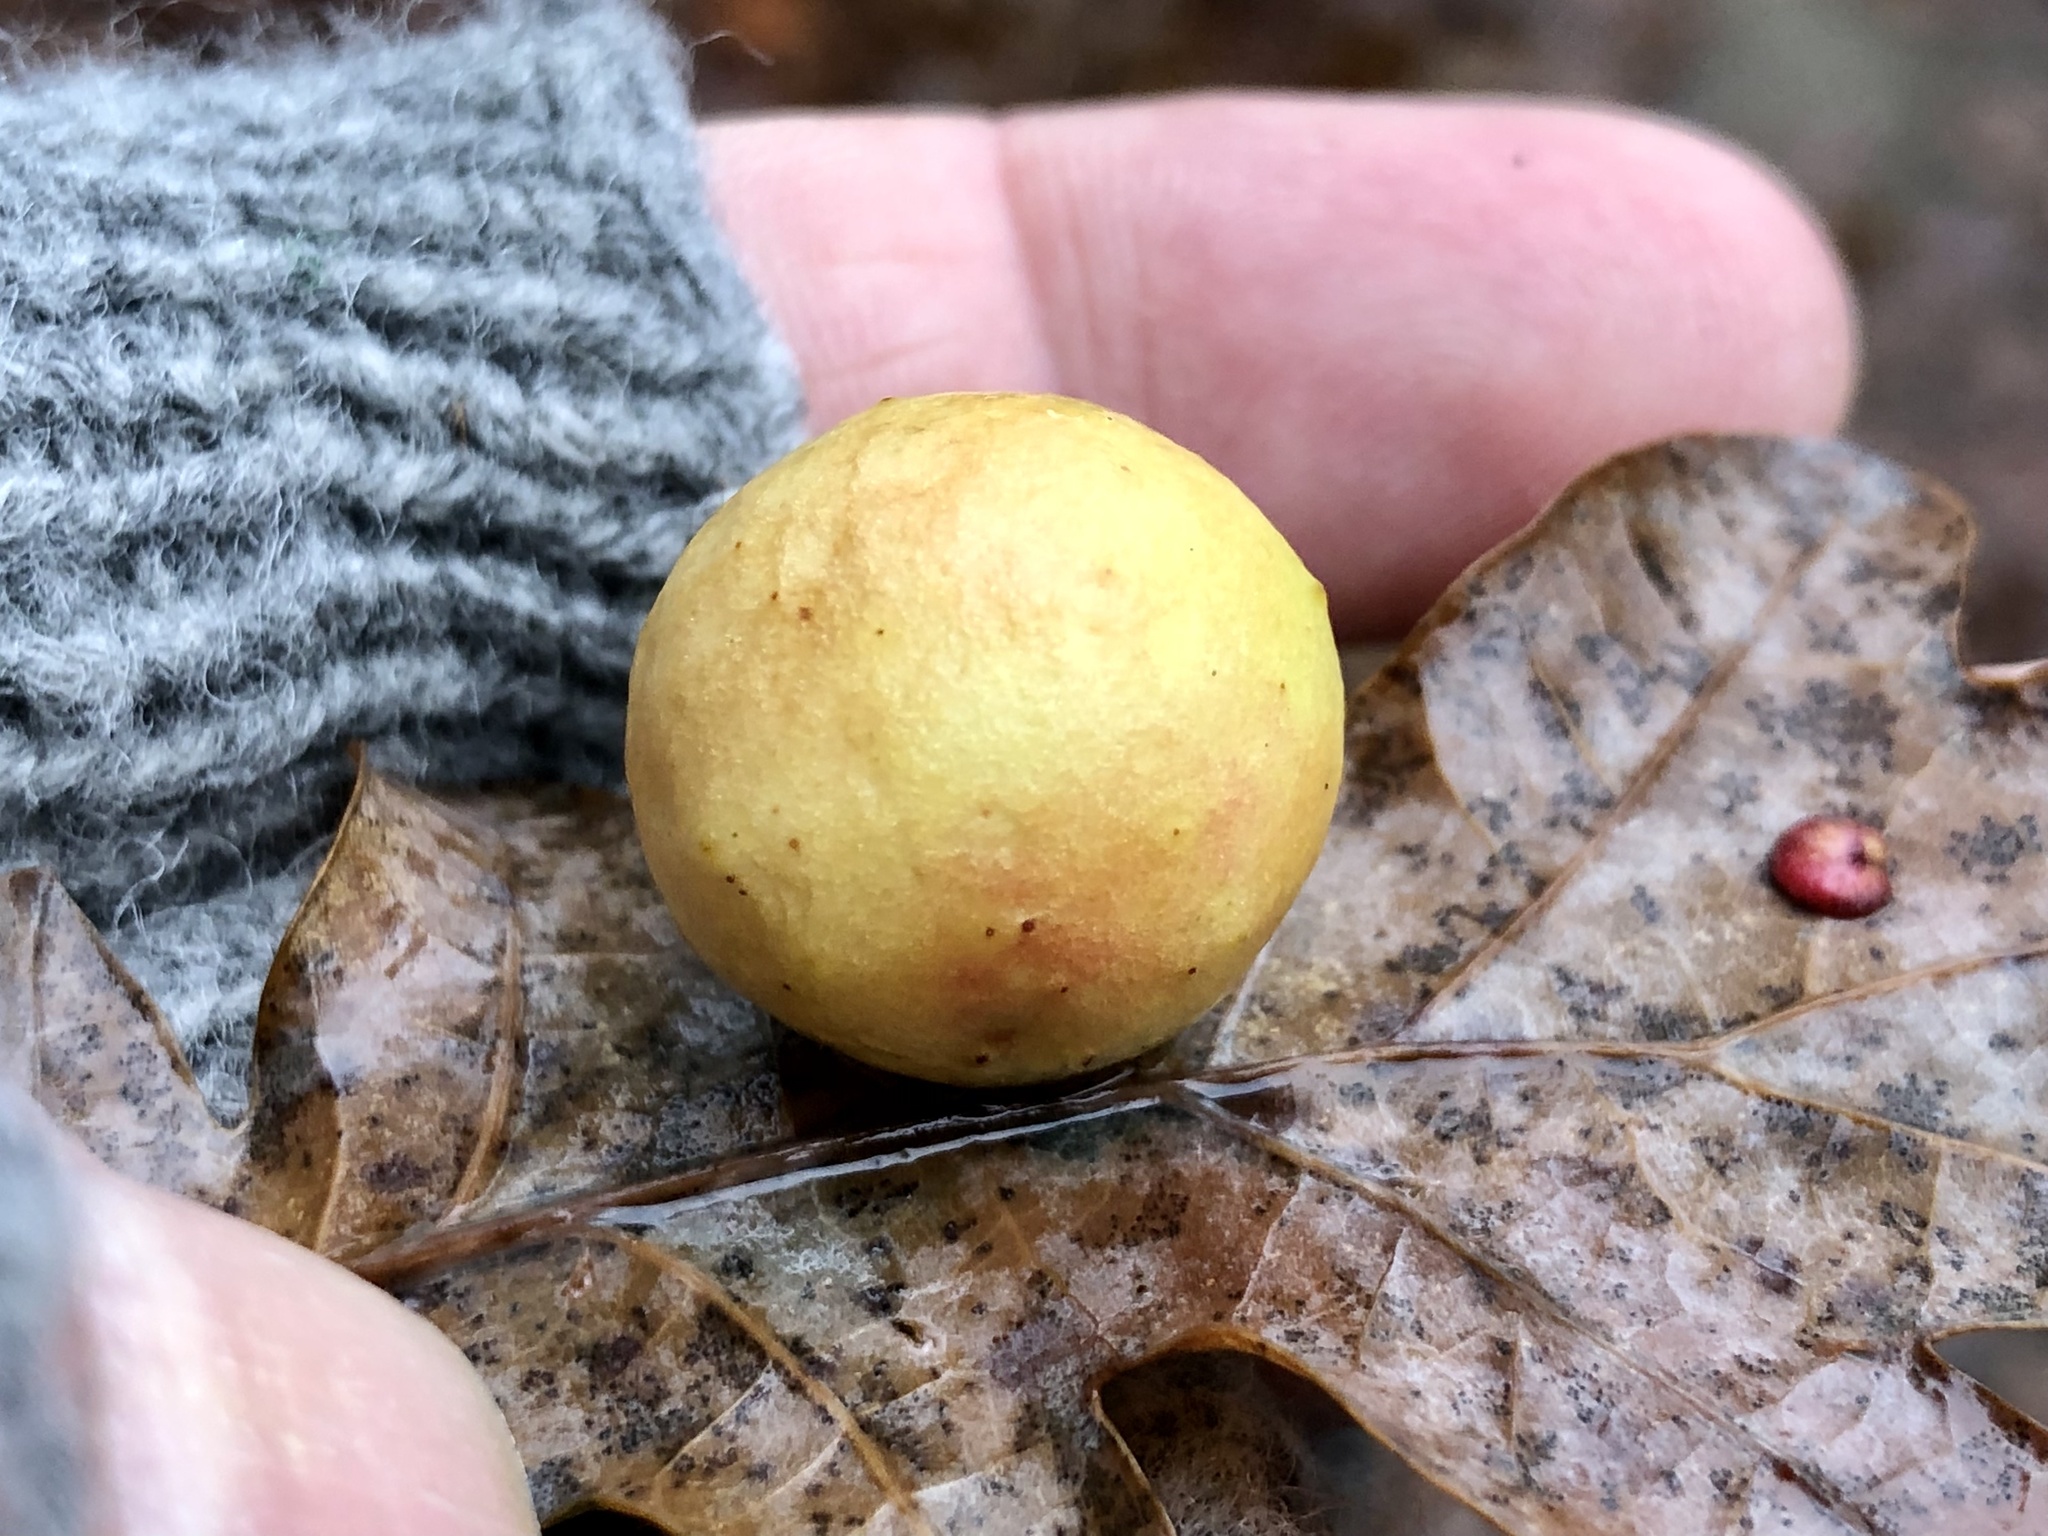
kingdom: Animalia
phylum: Arthropoda
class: Insecta
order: Hymenoptera
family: Cynipidae
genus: Cynips
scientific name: Cynips quercusfolii
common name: Cherry gall
